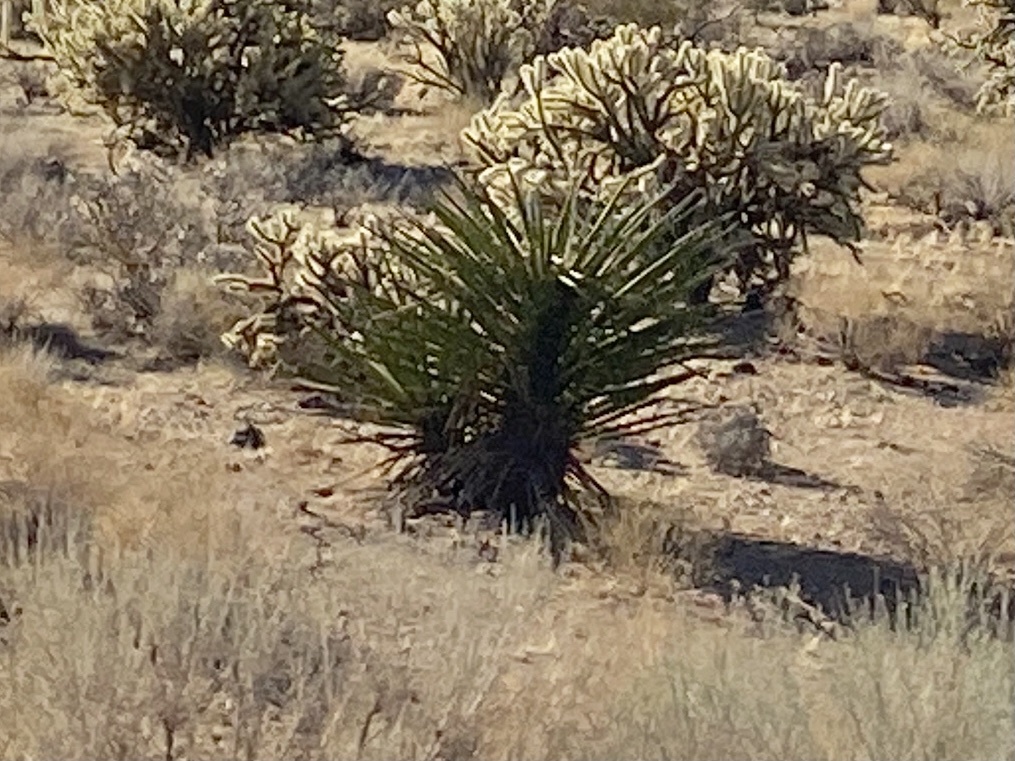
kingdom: Plantae
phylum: Tracheophyta
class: Liliopsida
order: Asparagales
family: Asparagaceae
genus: Yucca
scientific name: Yucca schidigera
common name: Mojave yucca
